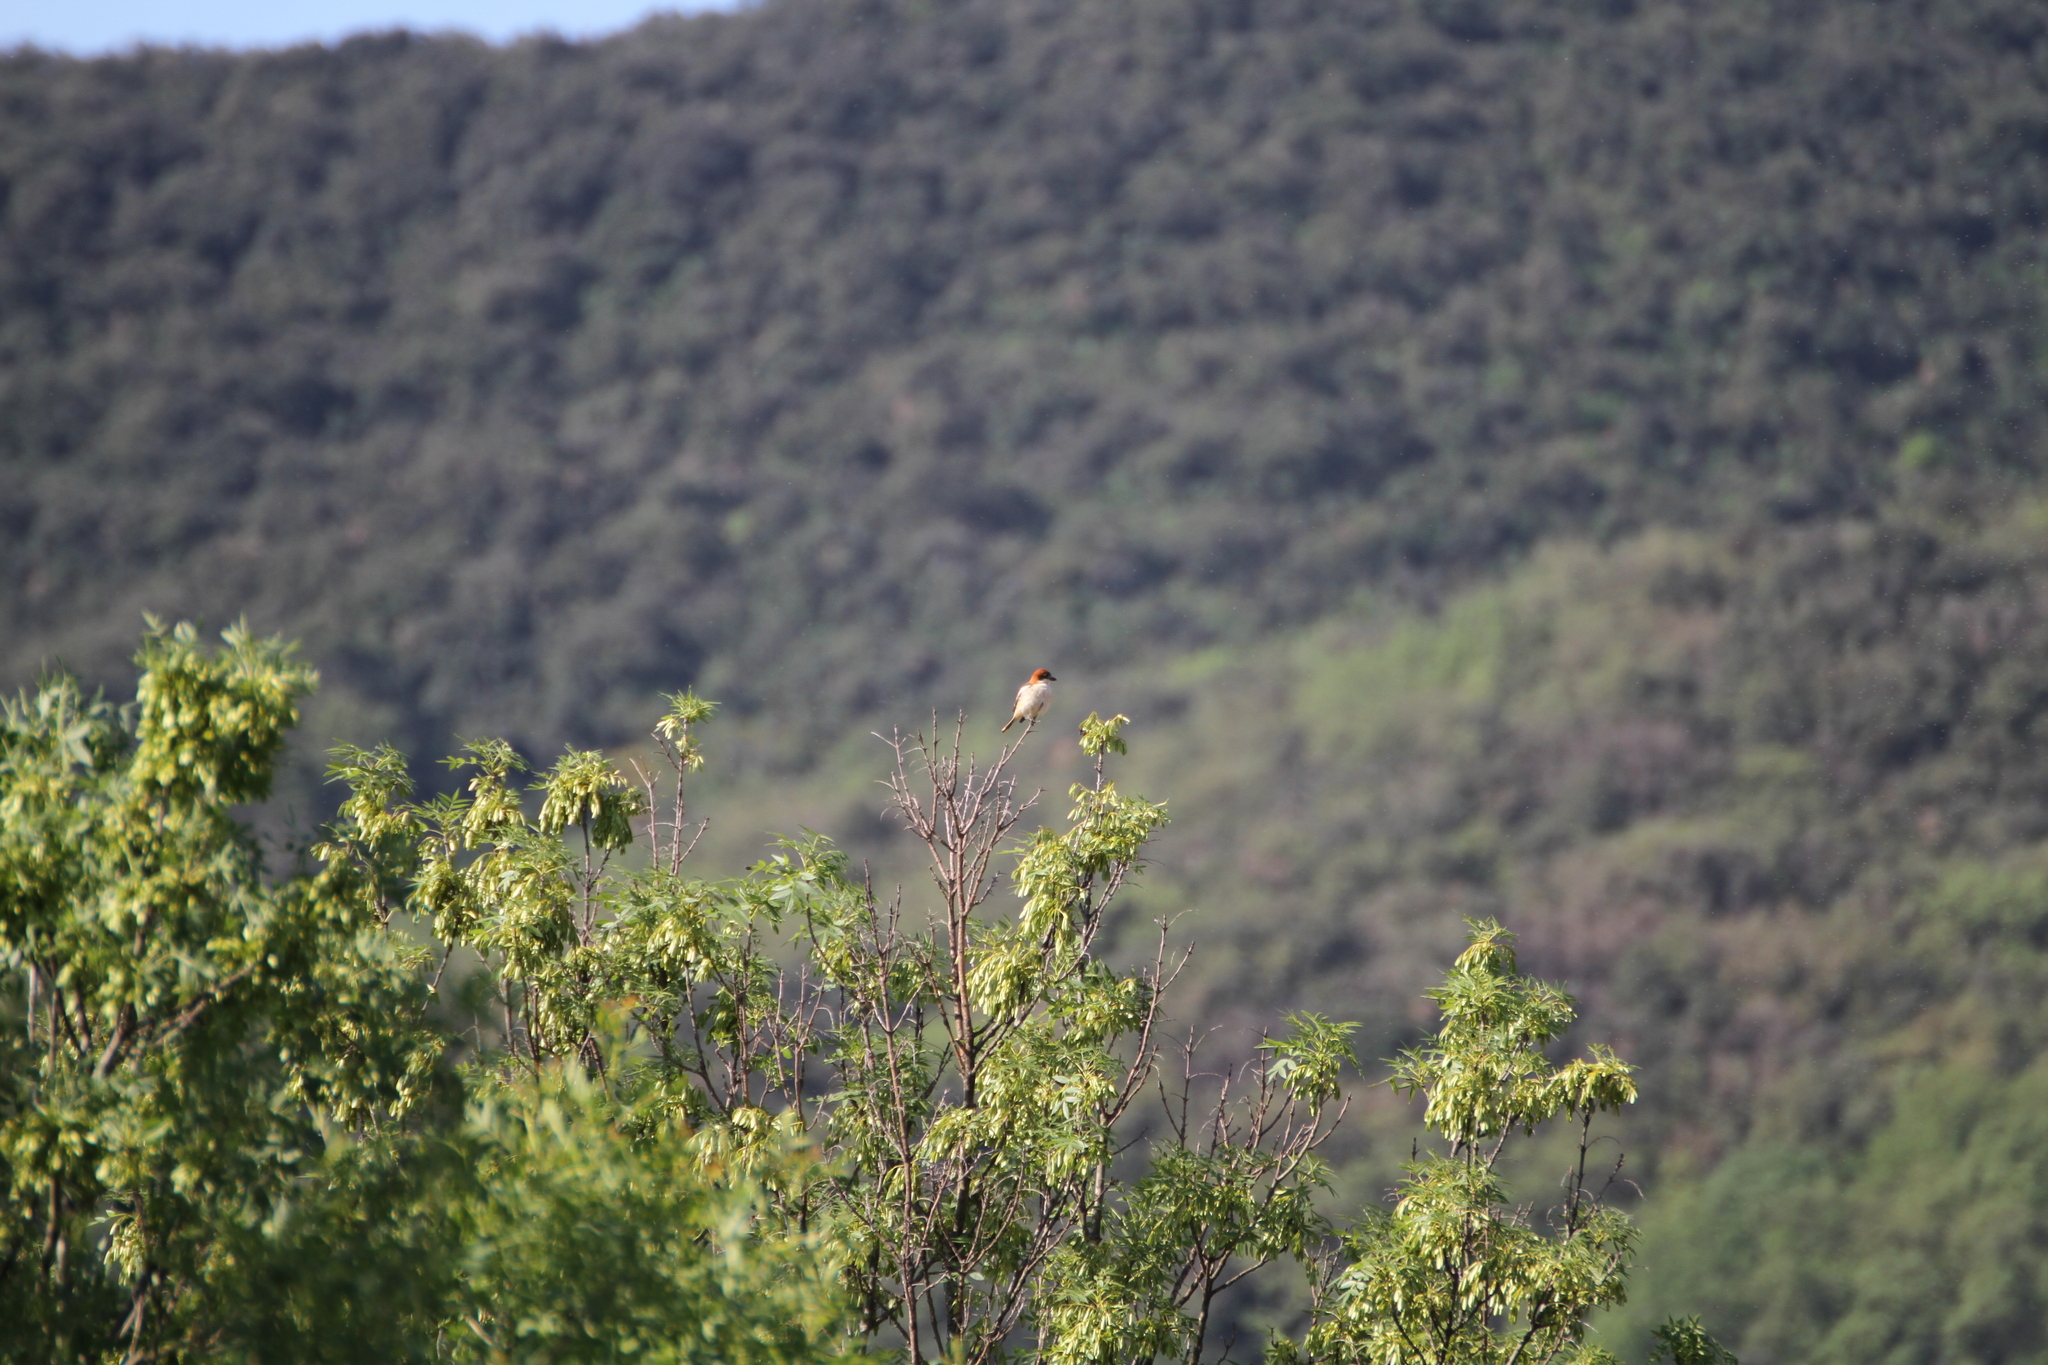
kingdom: Animalia
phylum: Chordata
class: Aves
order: Passeriformes
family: Laniidae
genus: Lanius
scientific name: Lanius senator
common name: Woodchat shrike
